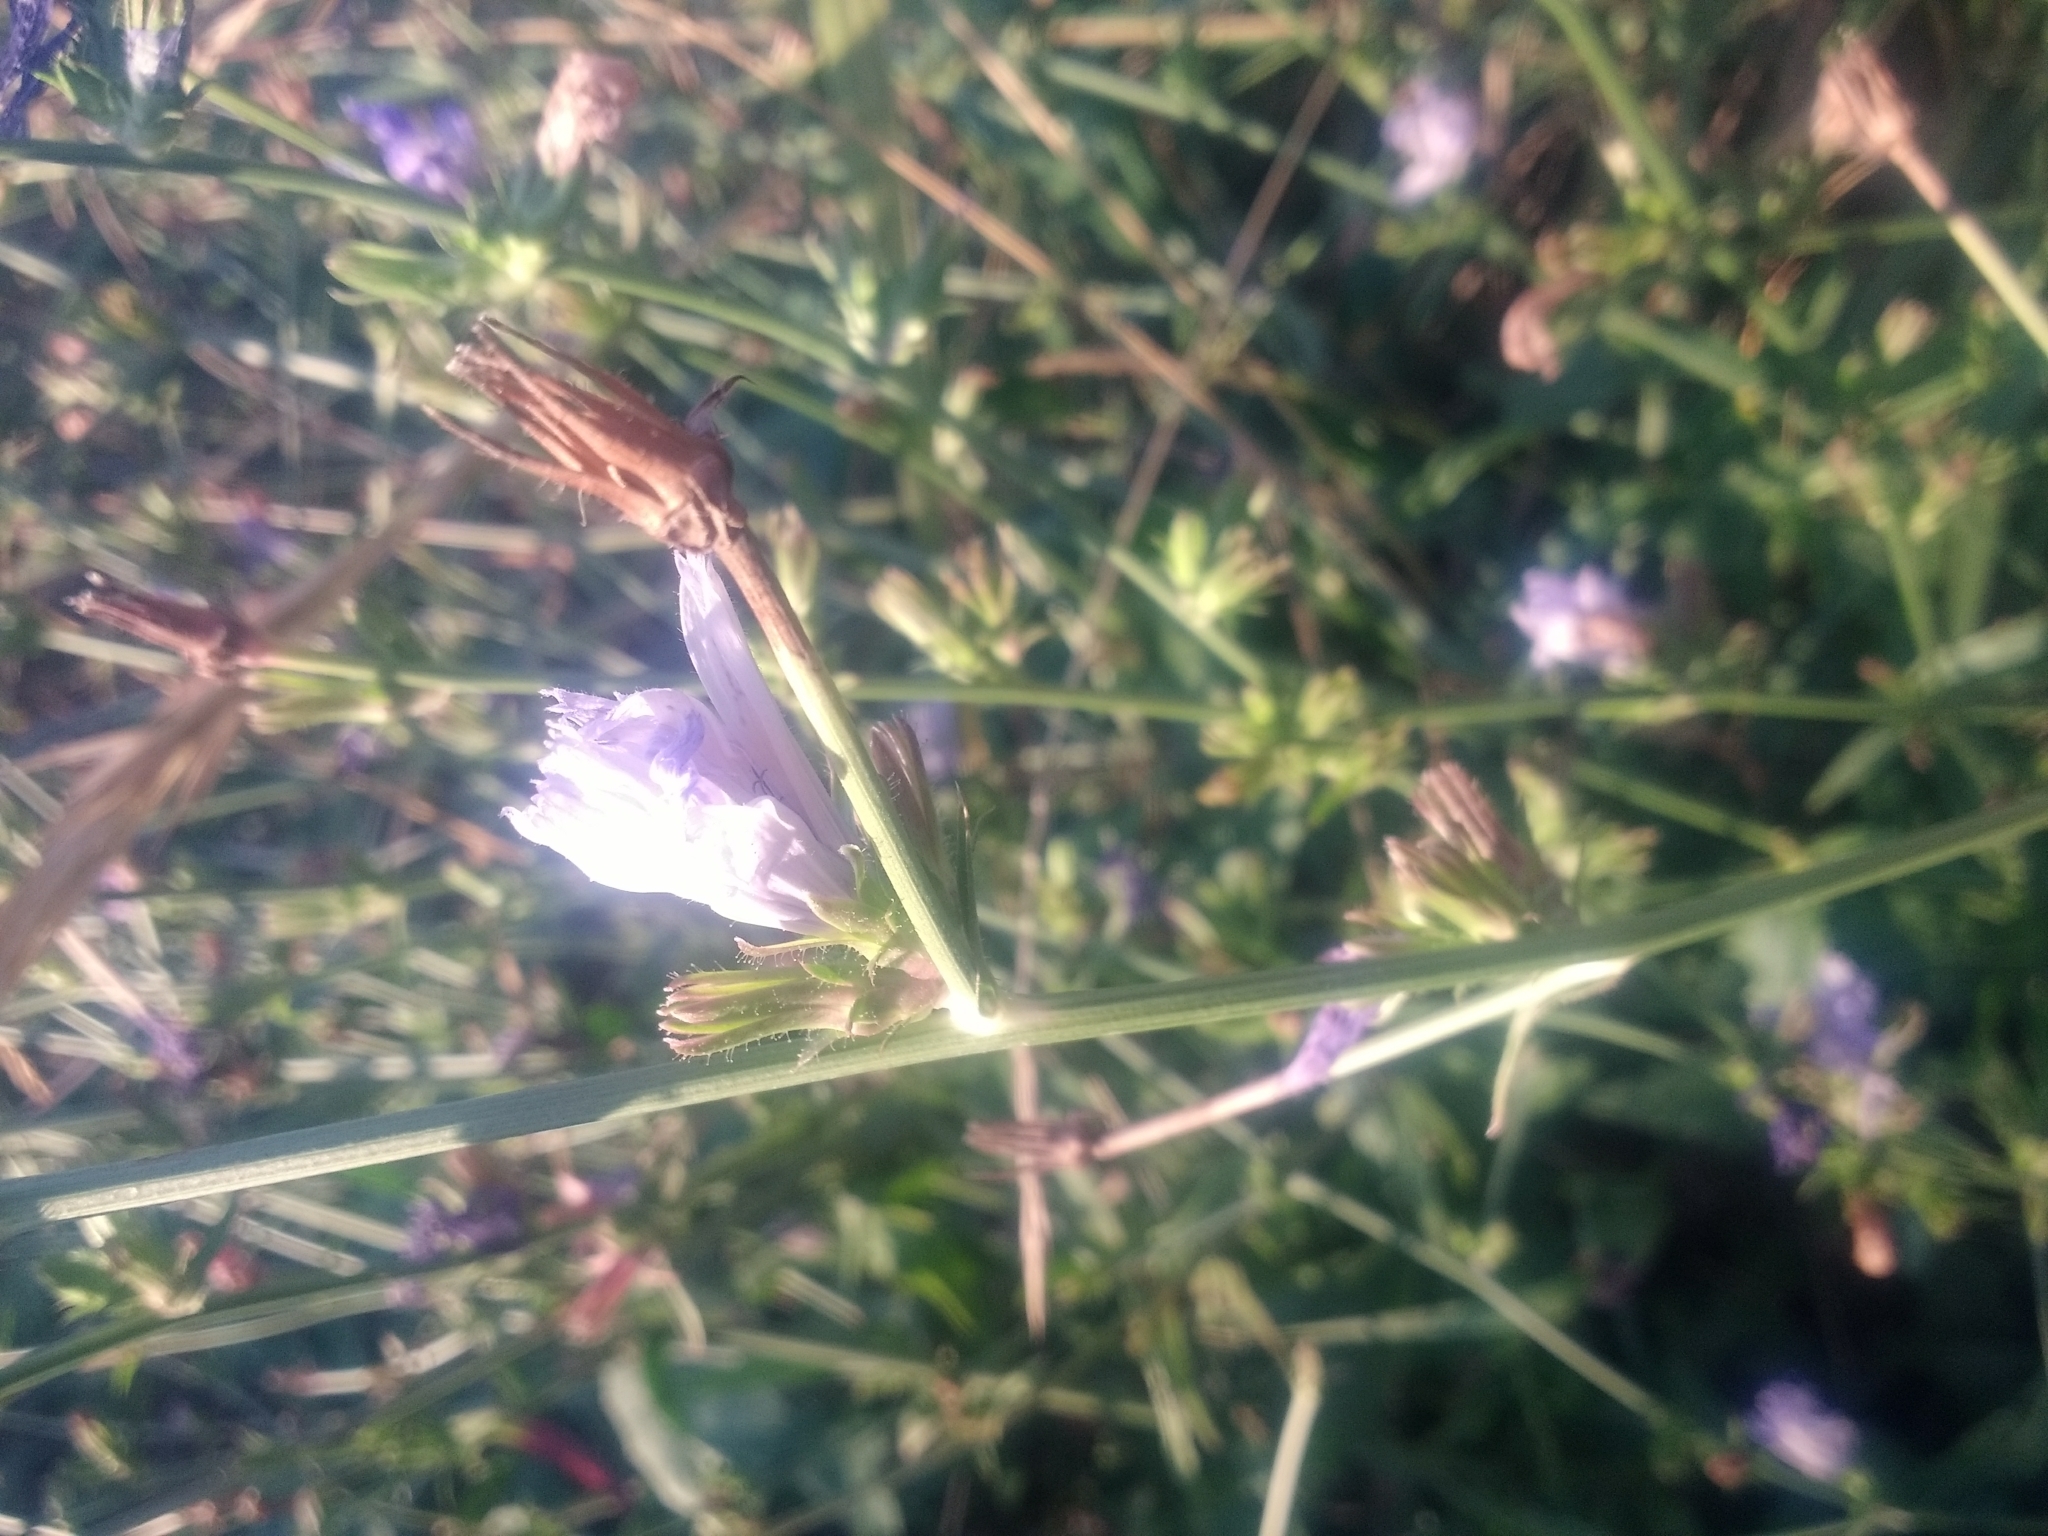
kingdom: Plantae
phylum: Tracheophyta
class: Magnoliopsida
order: Asterales
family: Asteraceae
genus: Cichorium
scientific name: Cichorium intybus
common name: Chicory
